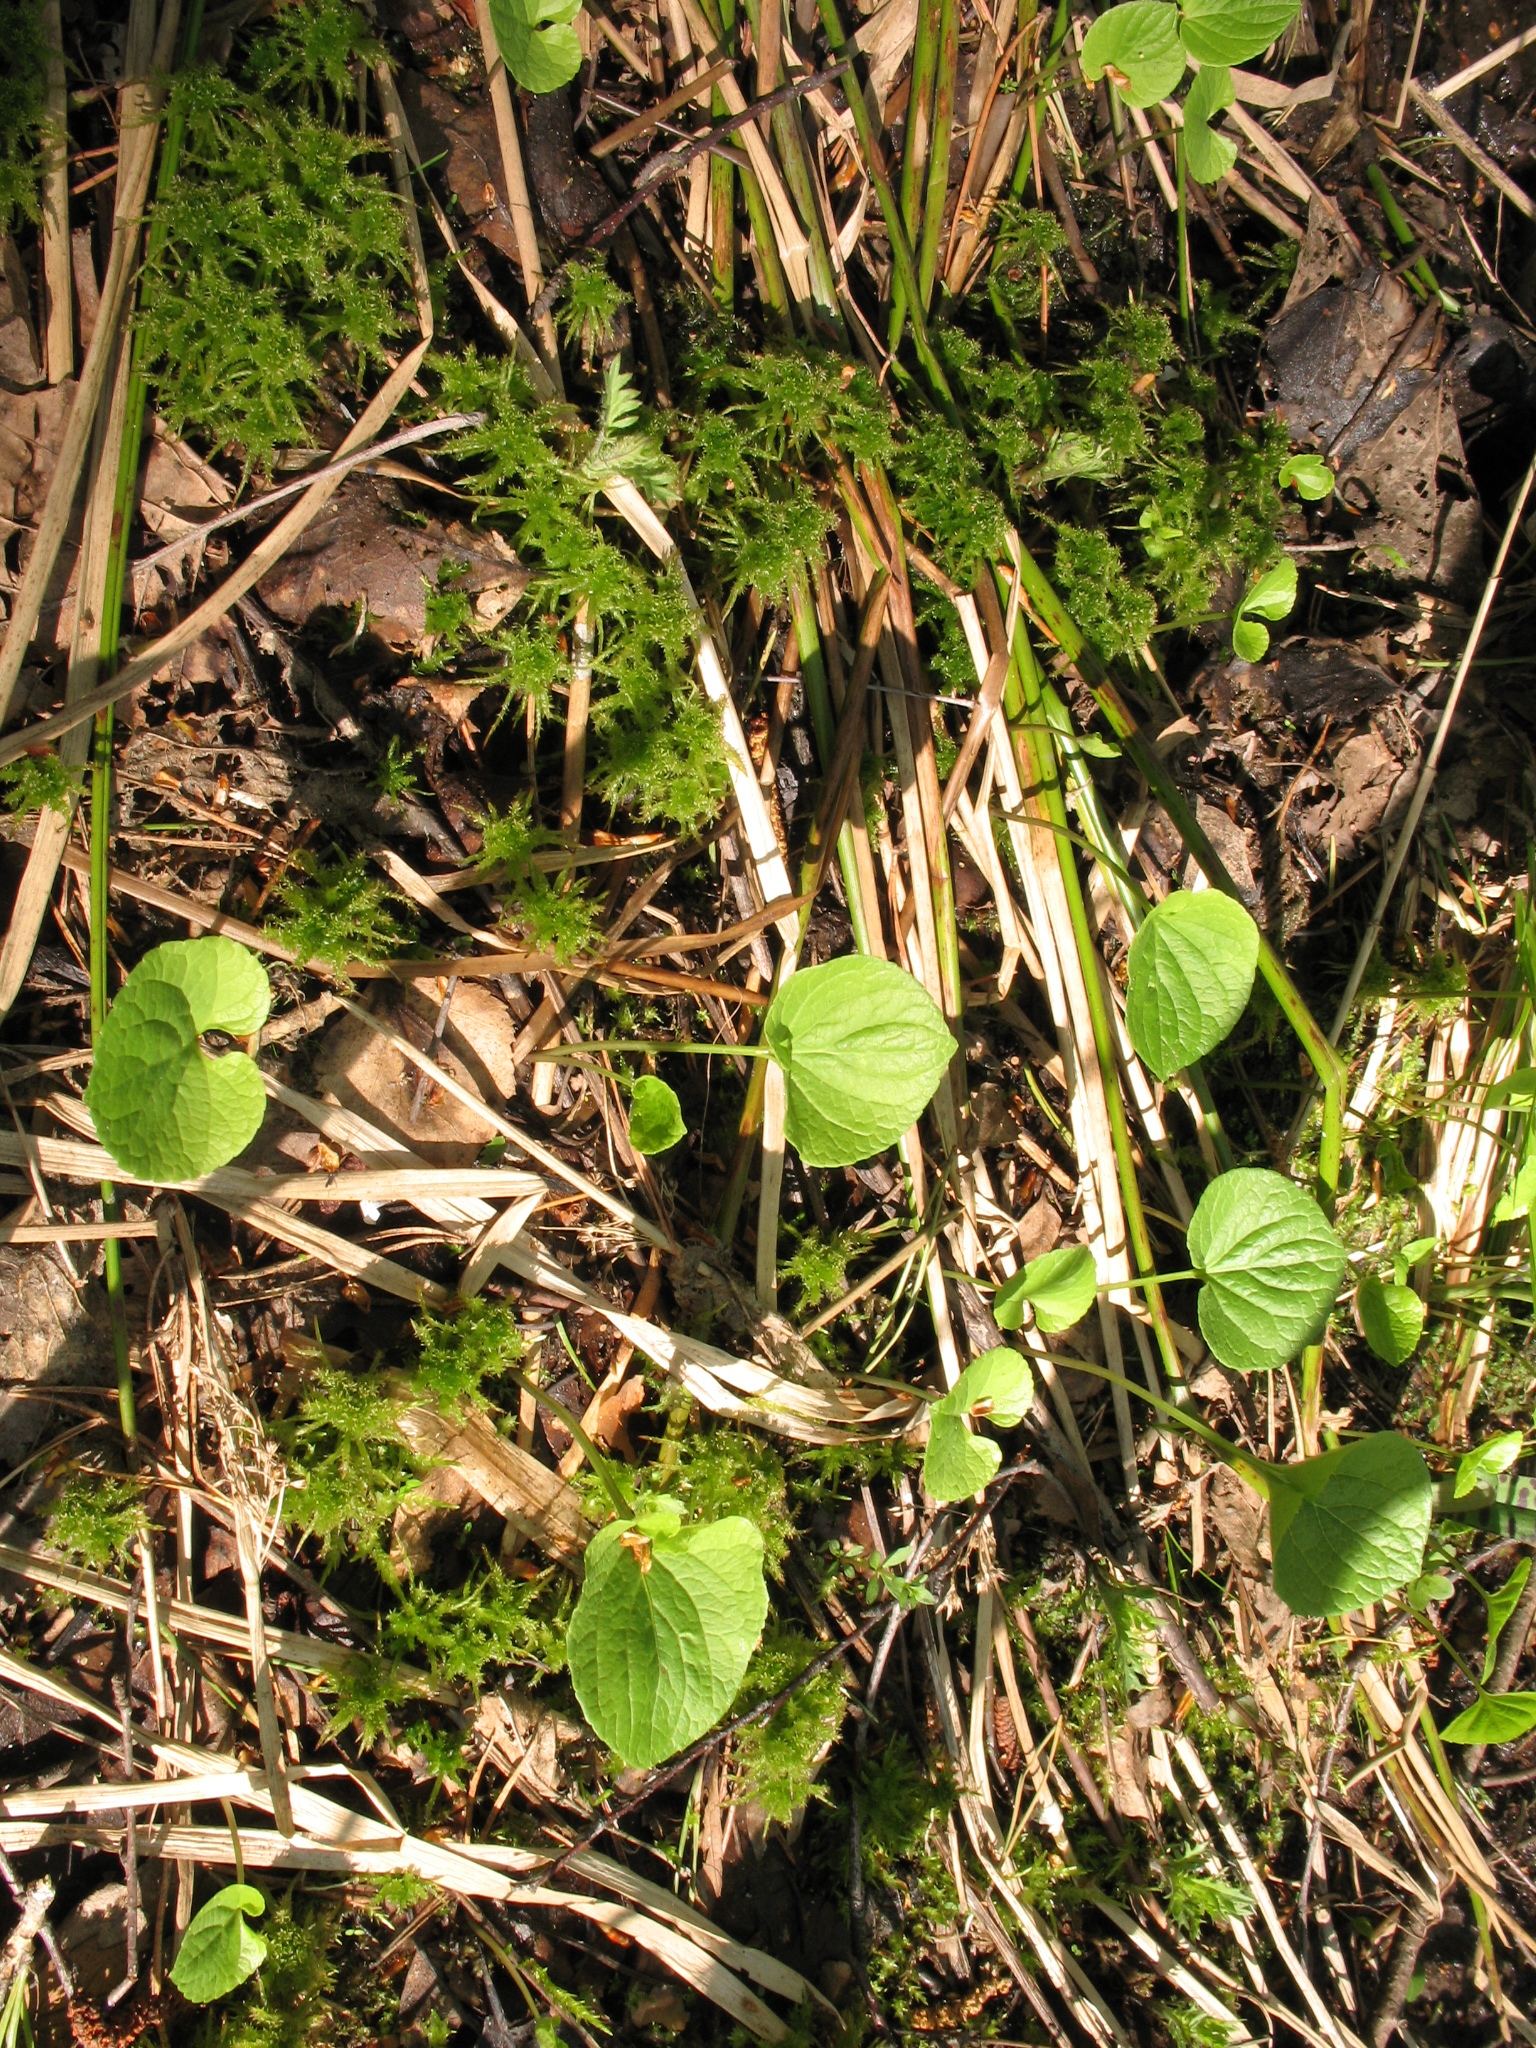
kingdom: Plantae
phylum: Tracheophyta
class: Magnoliopsida
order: Malpighiales
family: Violaceae
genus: Viola
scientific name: Viola epipsila
